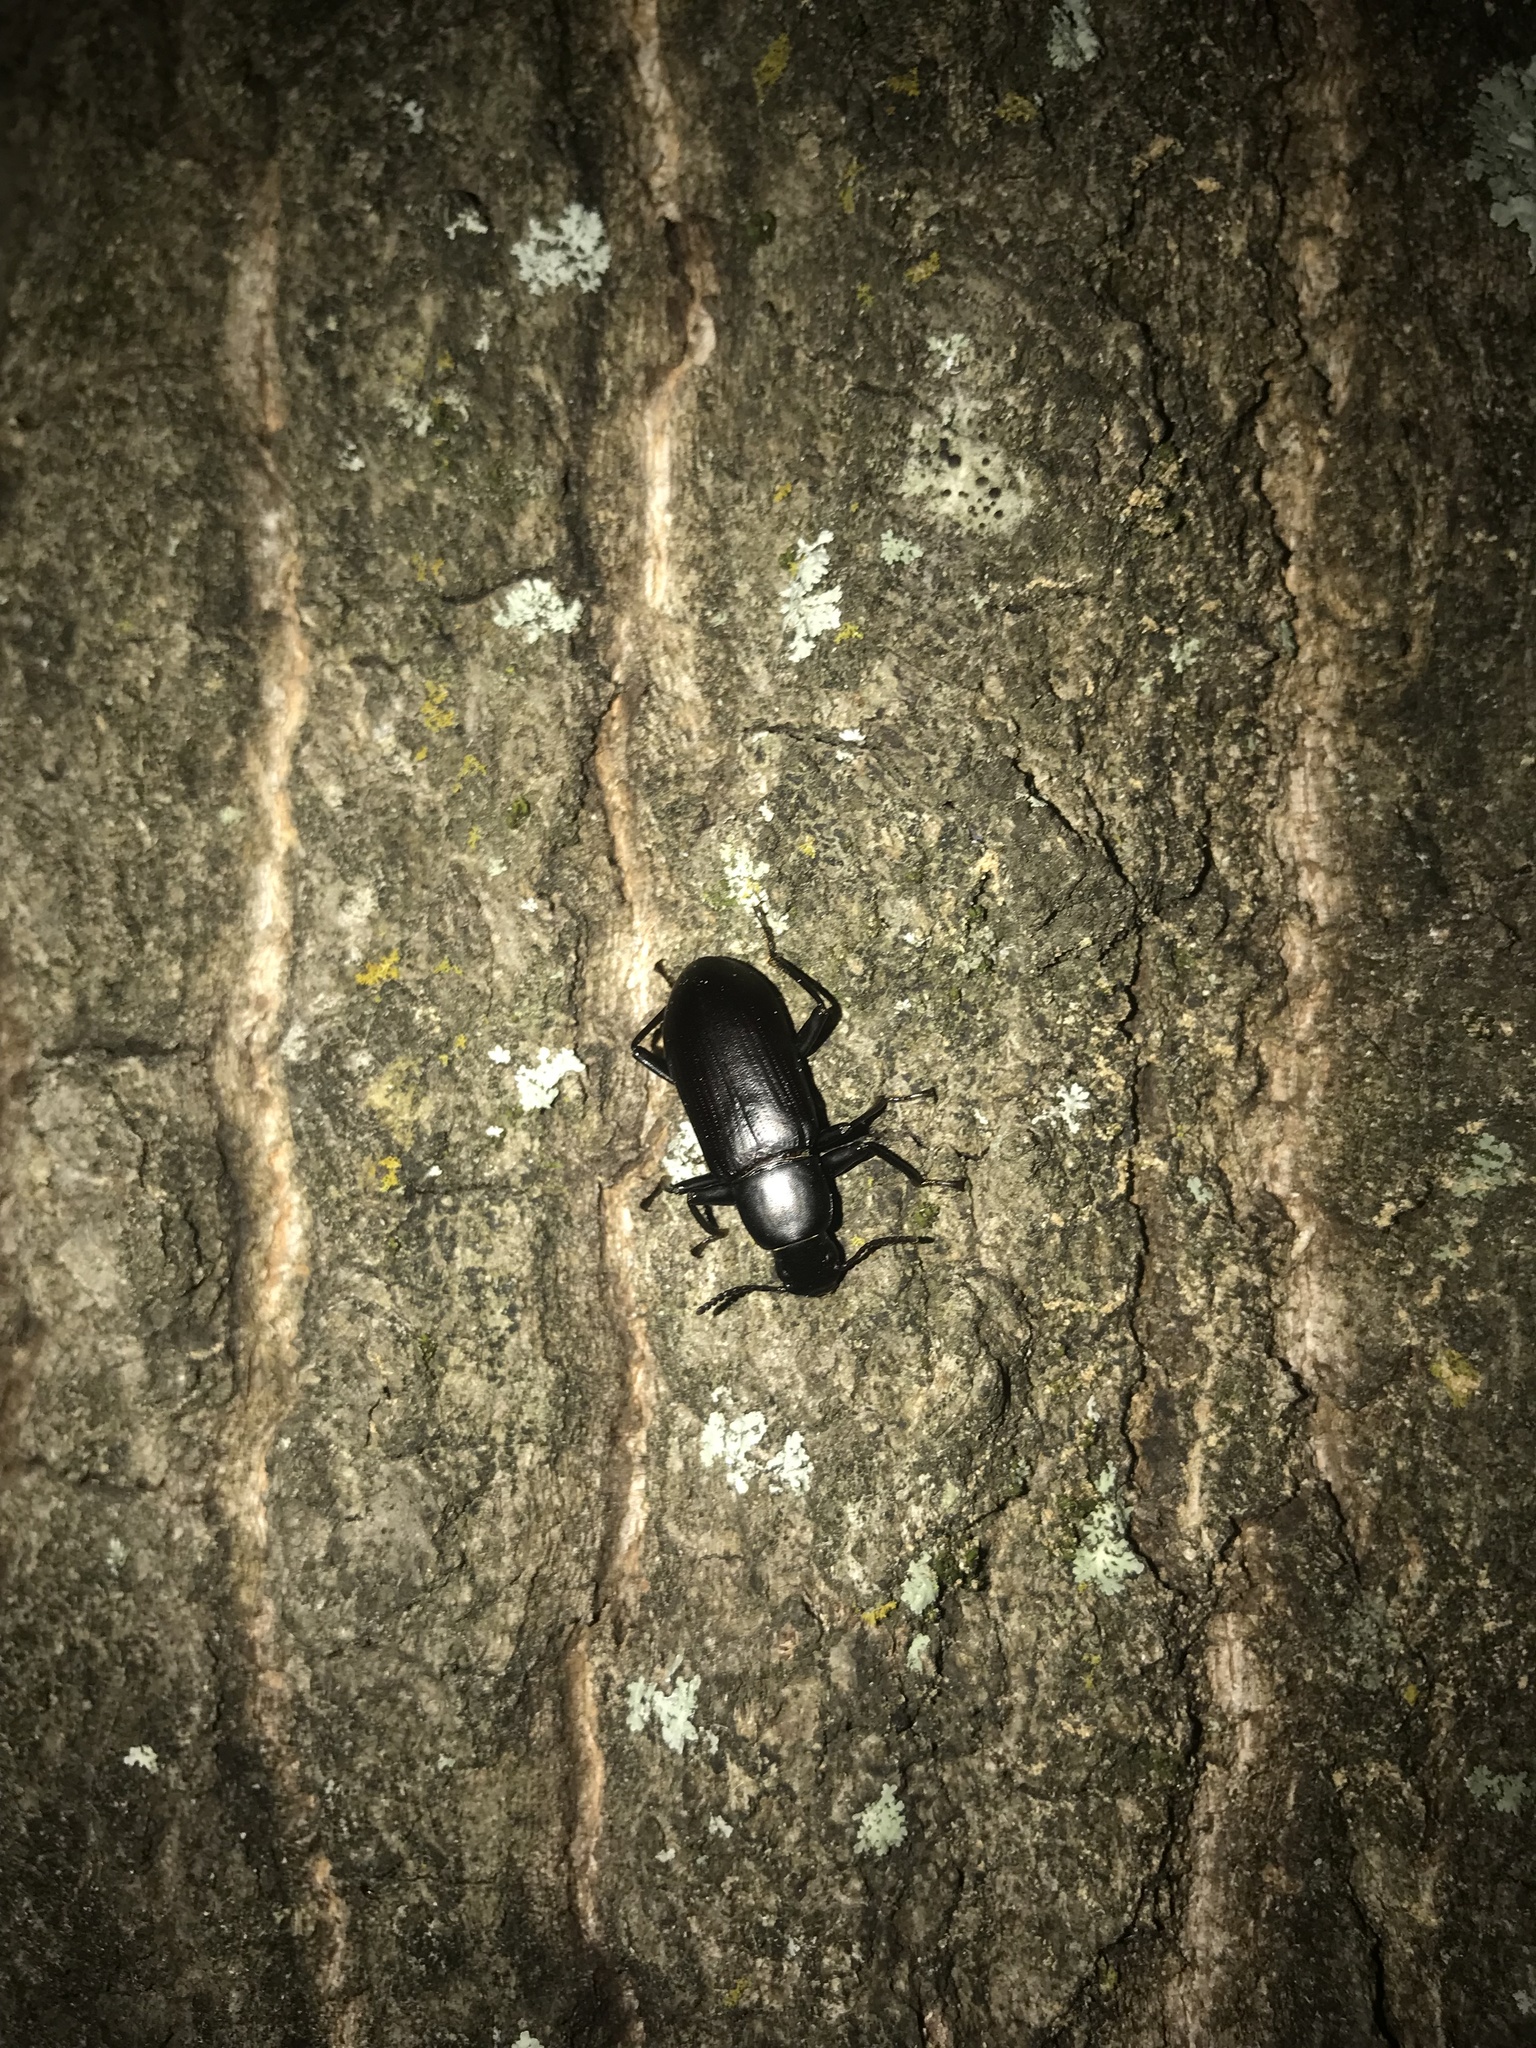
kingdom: Animalia
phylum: Arthropoda
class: Insecta
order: Coleoptera
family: Tenebrionidae
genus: Alobates
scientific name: Alobates pensylvanicus
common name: False mealworm beetle
